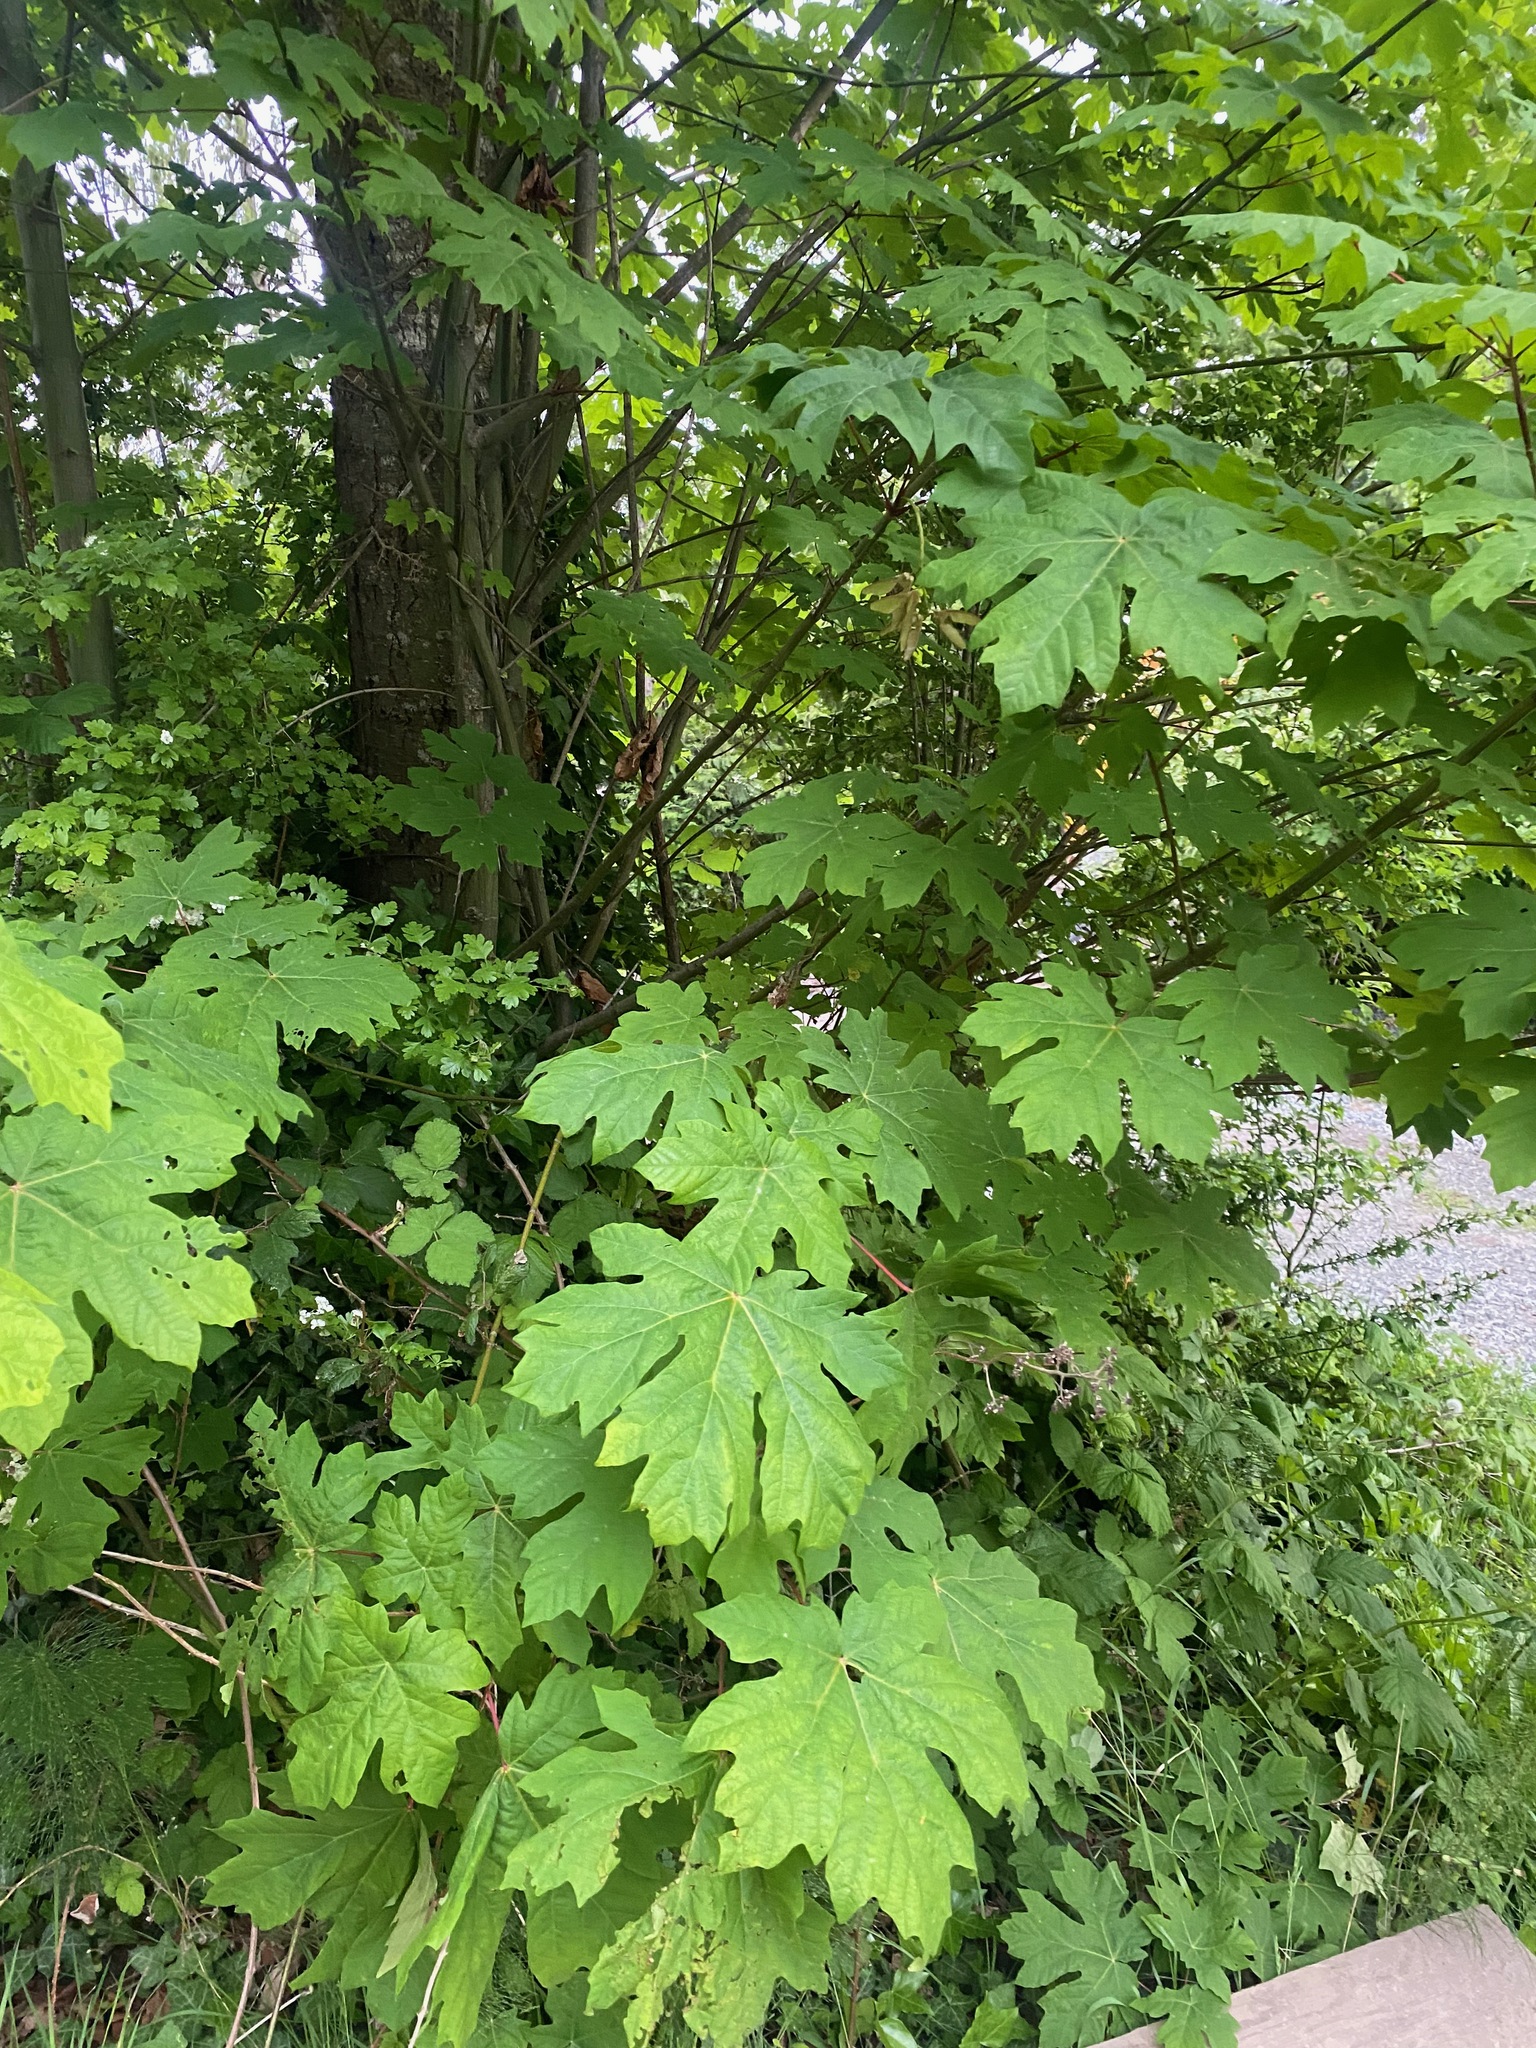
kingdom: Plantae
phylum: Tracheophyta
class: Magnoliopsida
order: Sapindales
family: Sapindaceae
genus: Acer
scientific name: Acer macrophyllum
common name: Oregon maple
